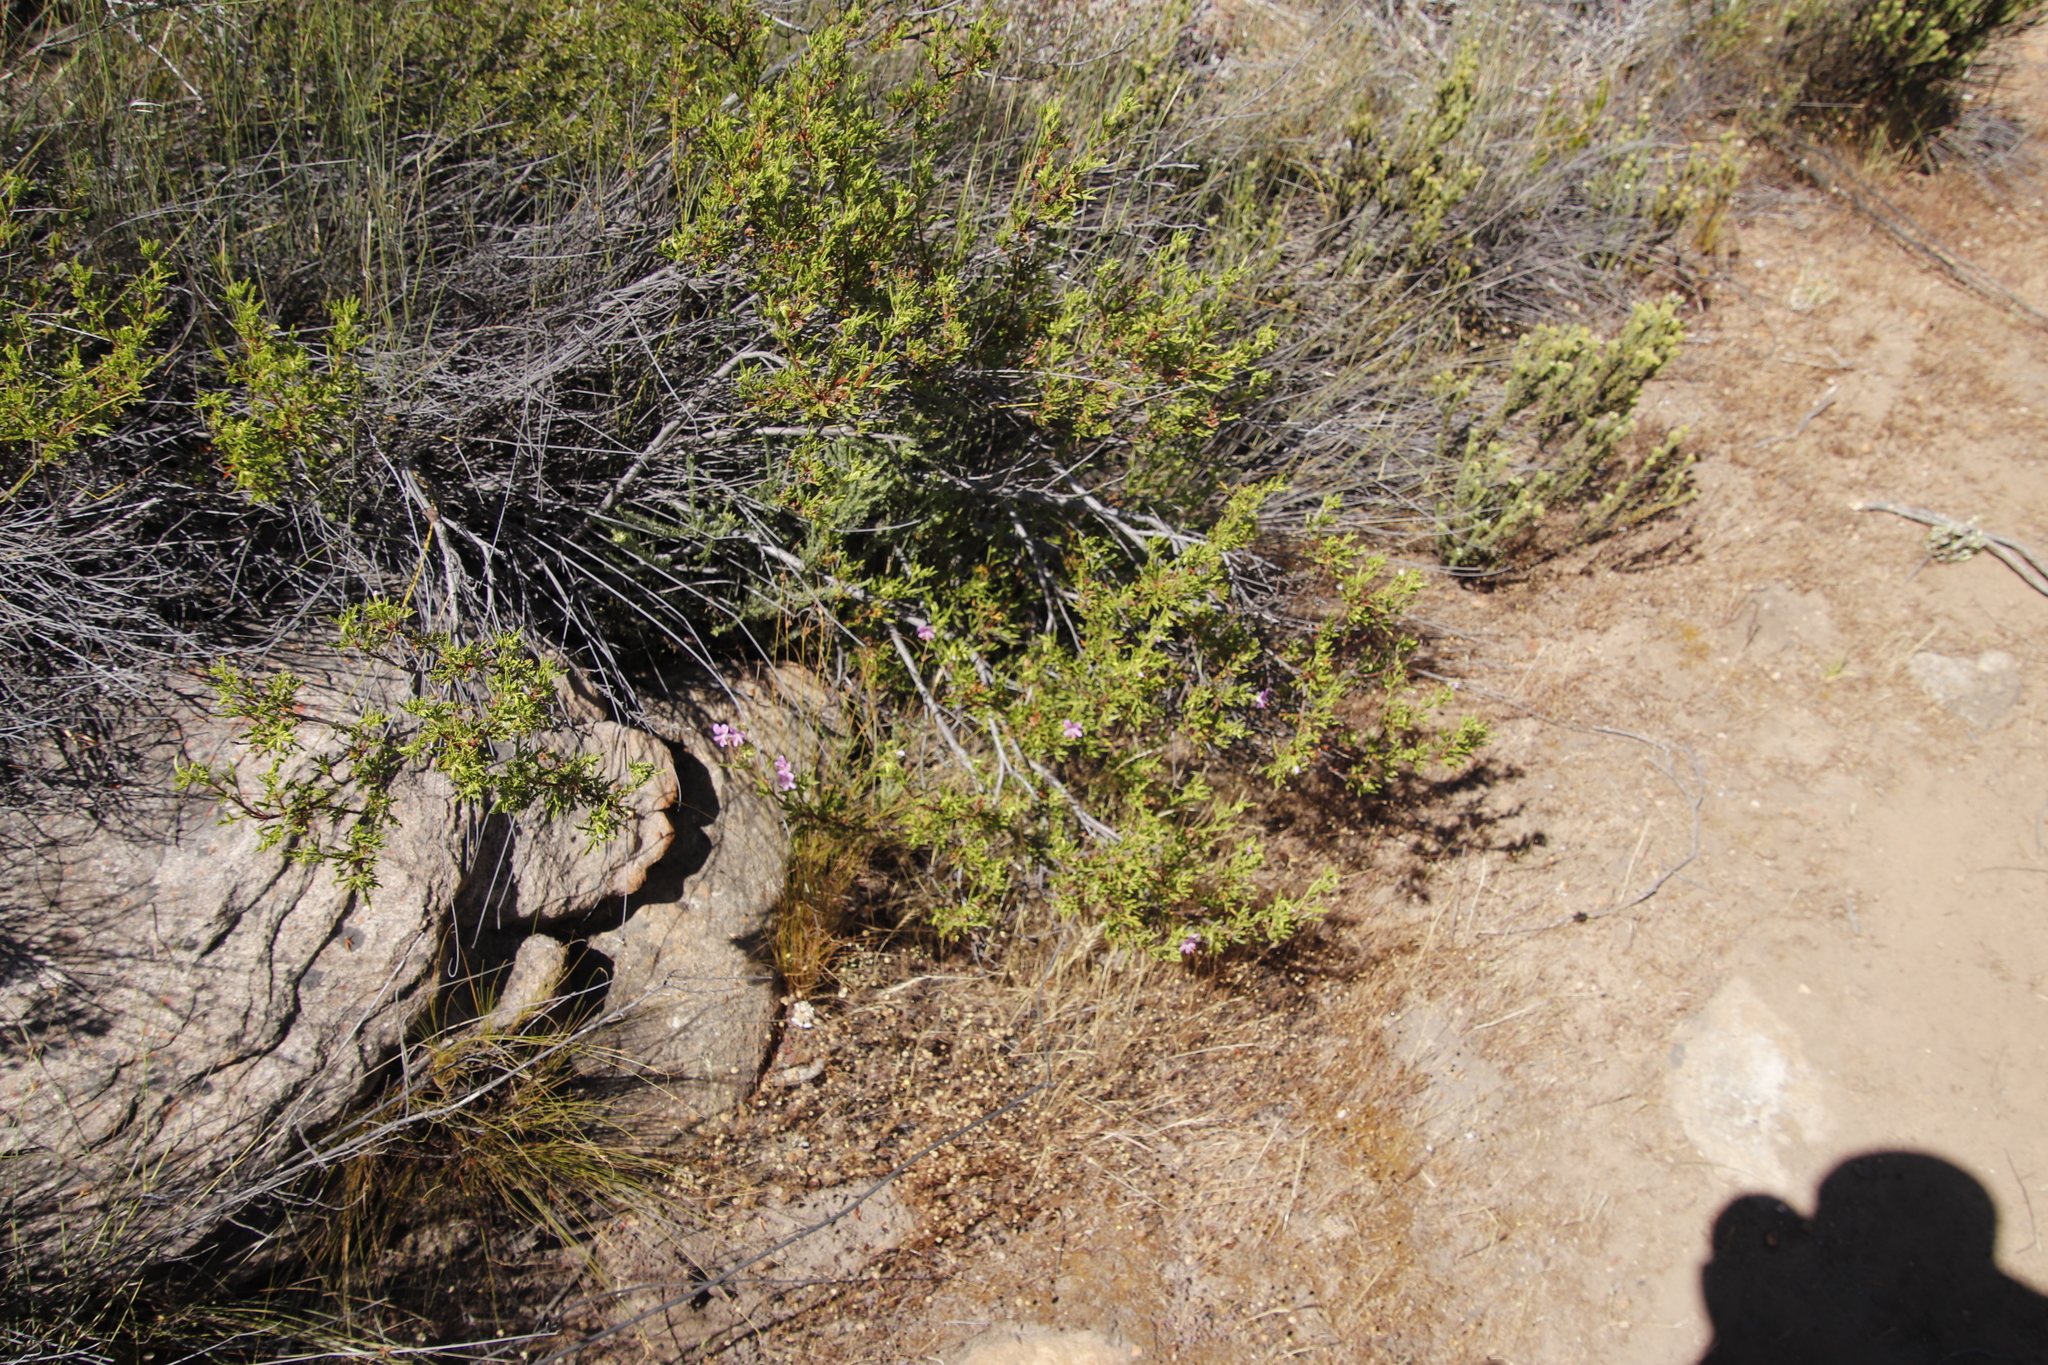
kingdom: Plantae
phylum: Tracheophyta
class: Magnoliopsida
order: Geraniales
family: Geraniaceae
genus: Pelargonium
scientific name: Pelargonium scabrum
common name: Apricot geranium
